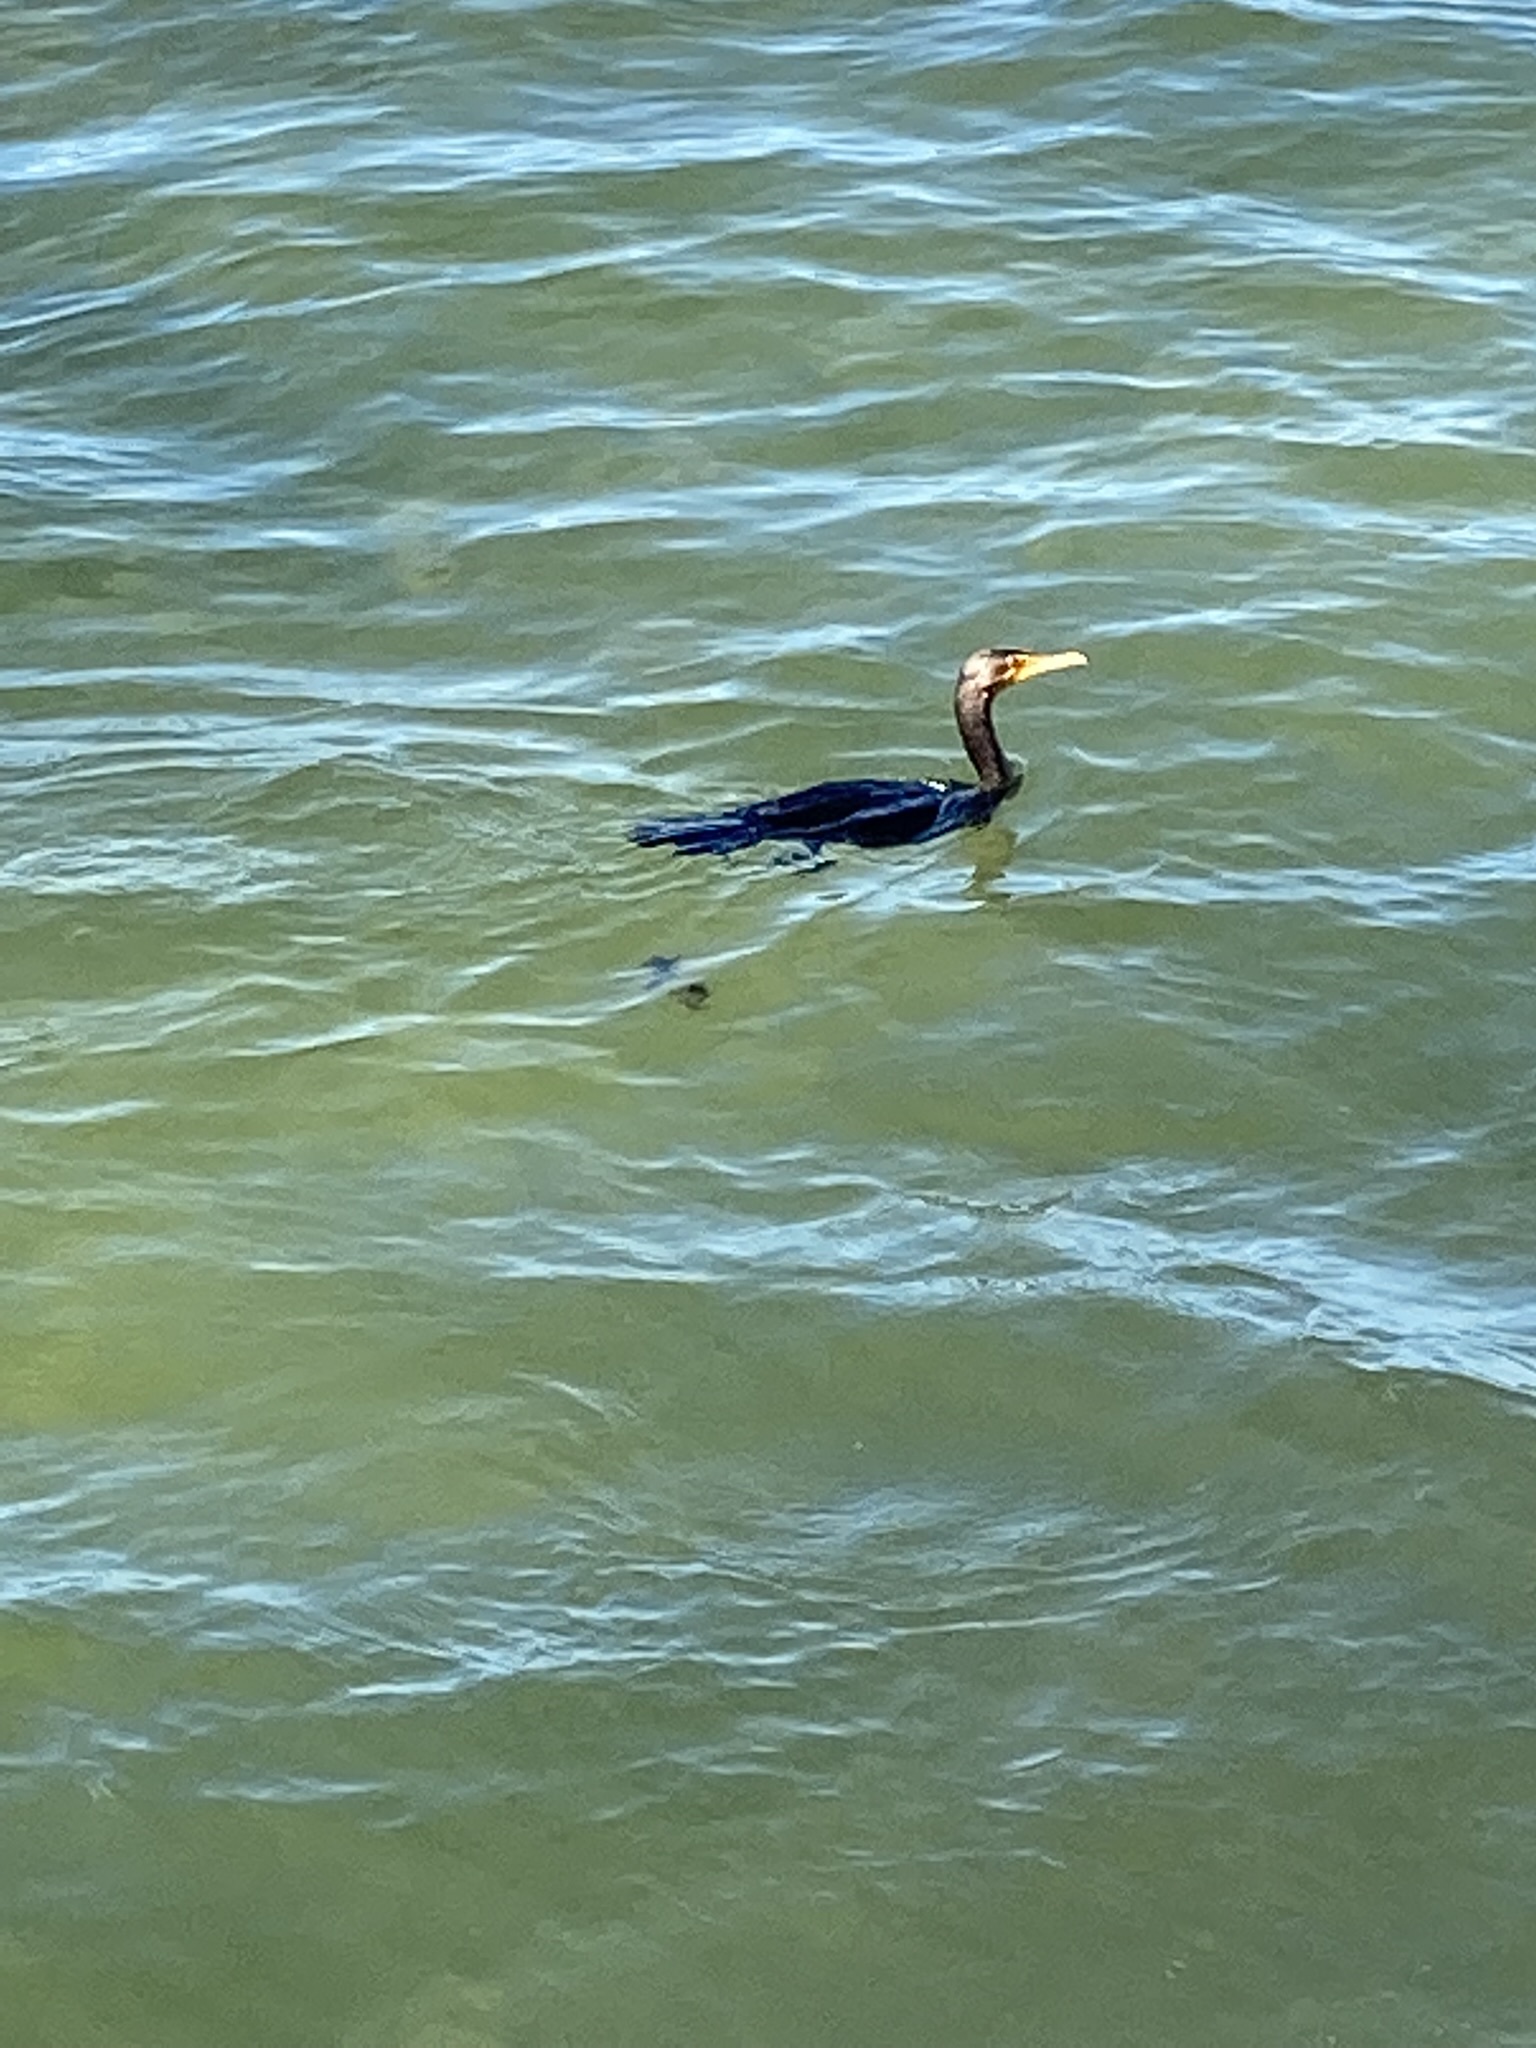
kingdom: Animalia
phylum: Chordata
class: Aves
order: Suliformes
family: Phalacrocoracidae
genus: Phalacrocorax
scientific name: Phalacrocorax auritus
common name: Double-crested cormorant
